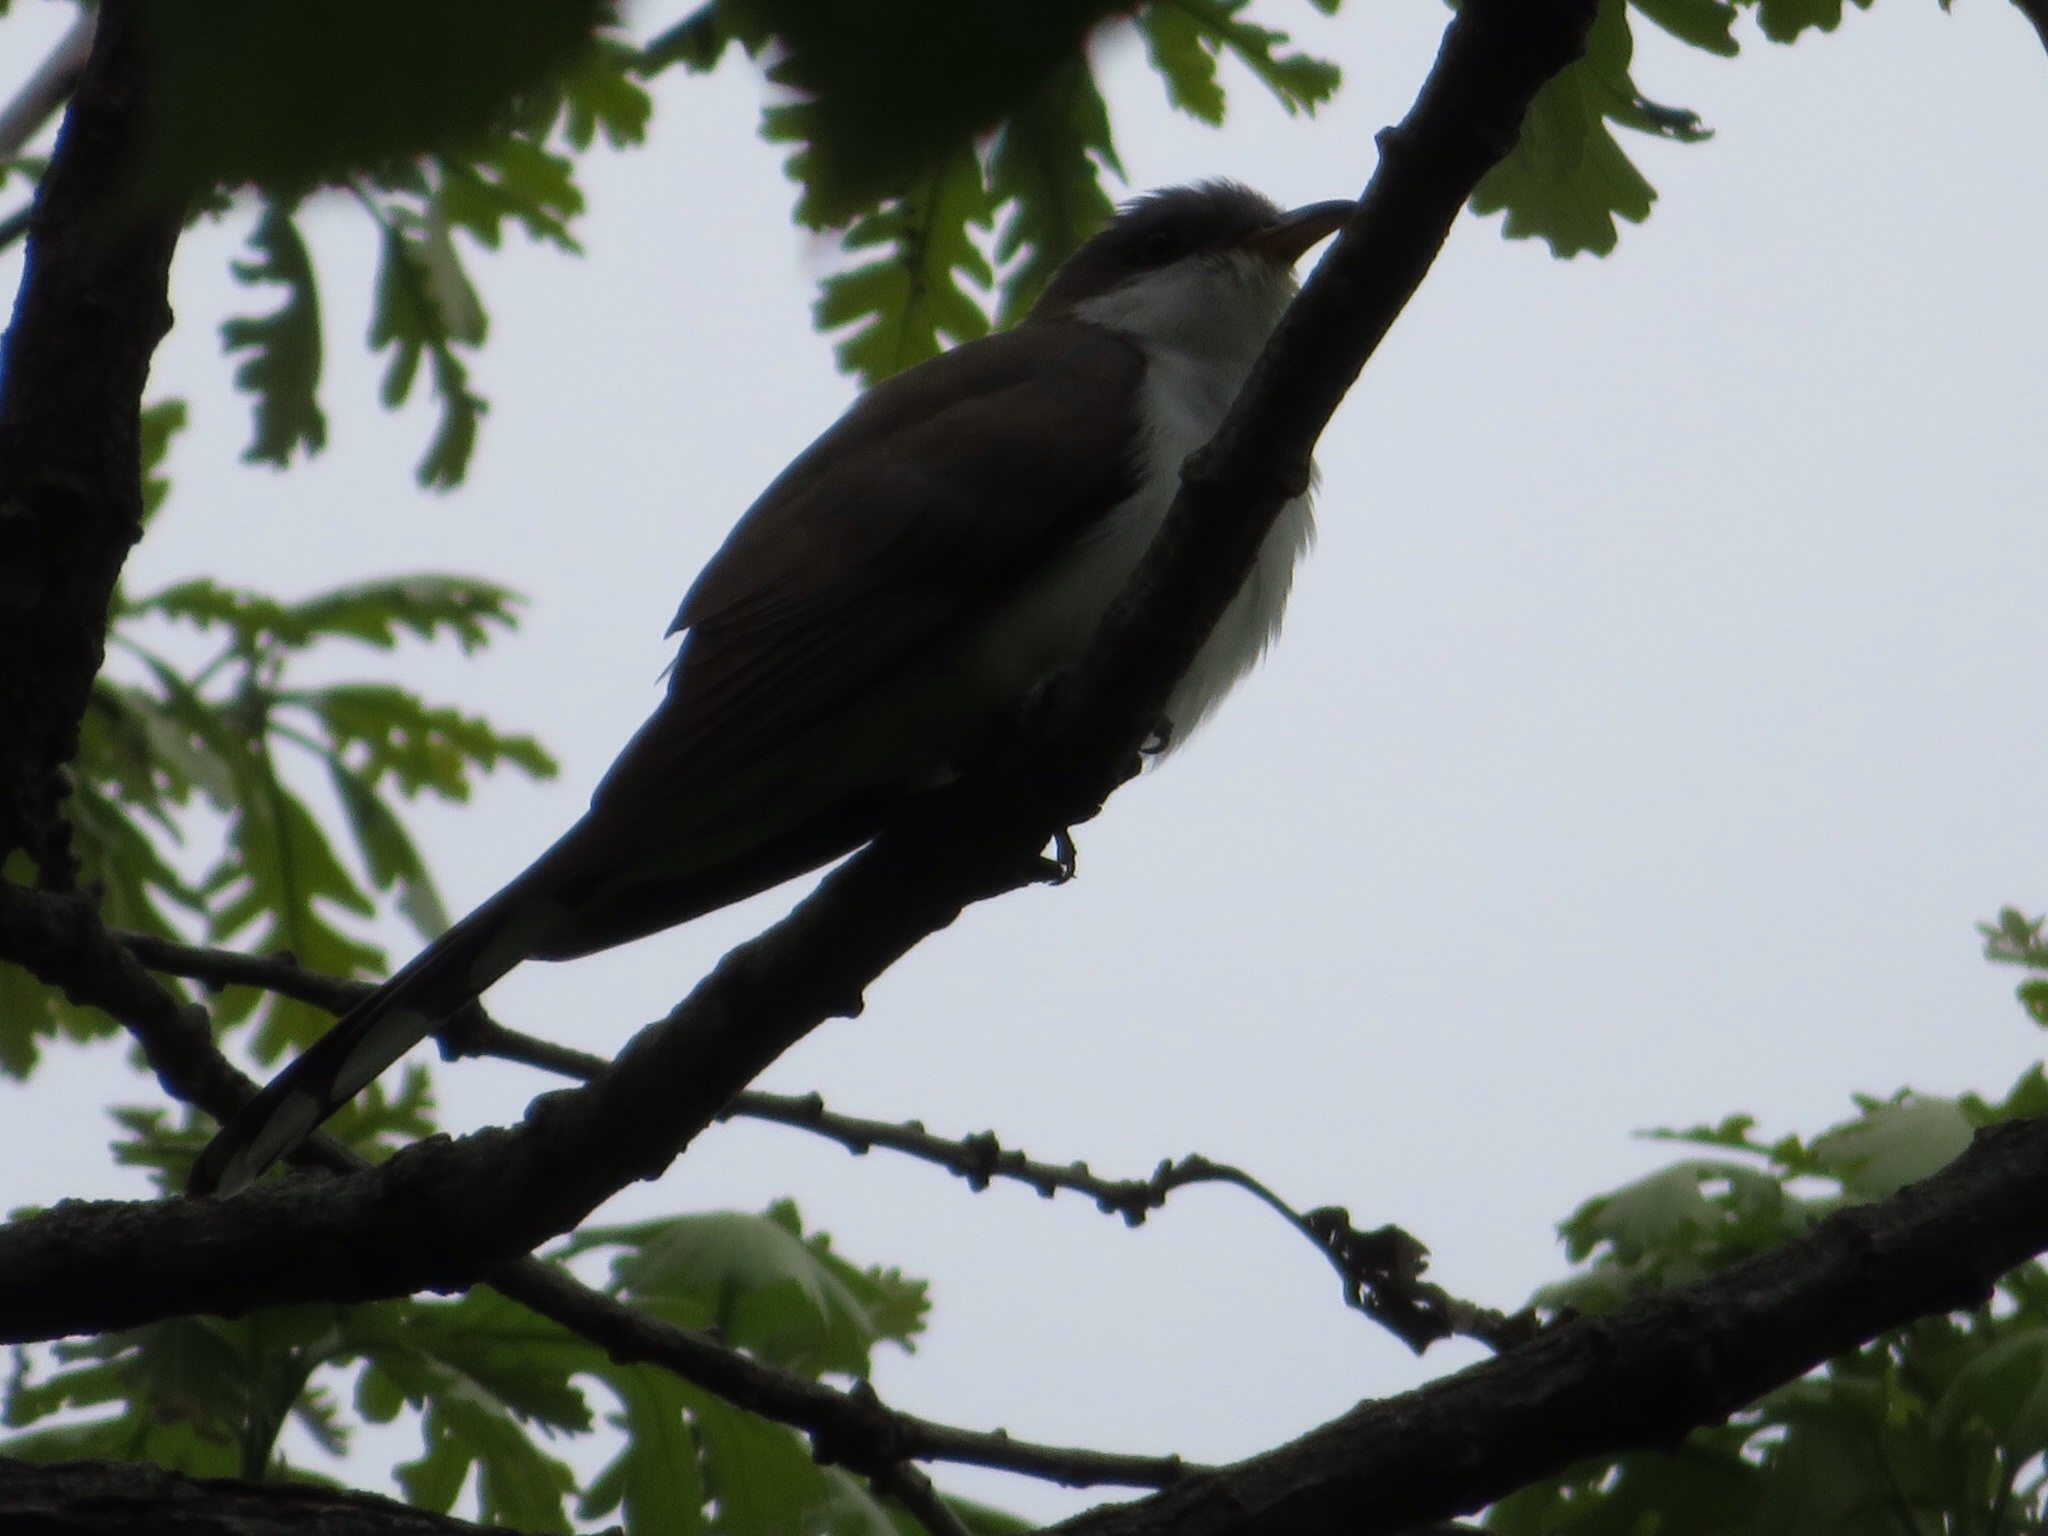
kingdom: Animalia
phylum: Chordata
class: Aves
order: Cuculiformes
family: Cuculidae
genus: Coccyzus
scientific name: Coccyzus americanus
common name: Yellow-billed cuckoo
